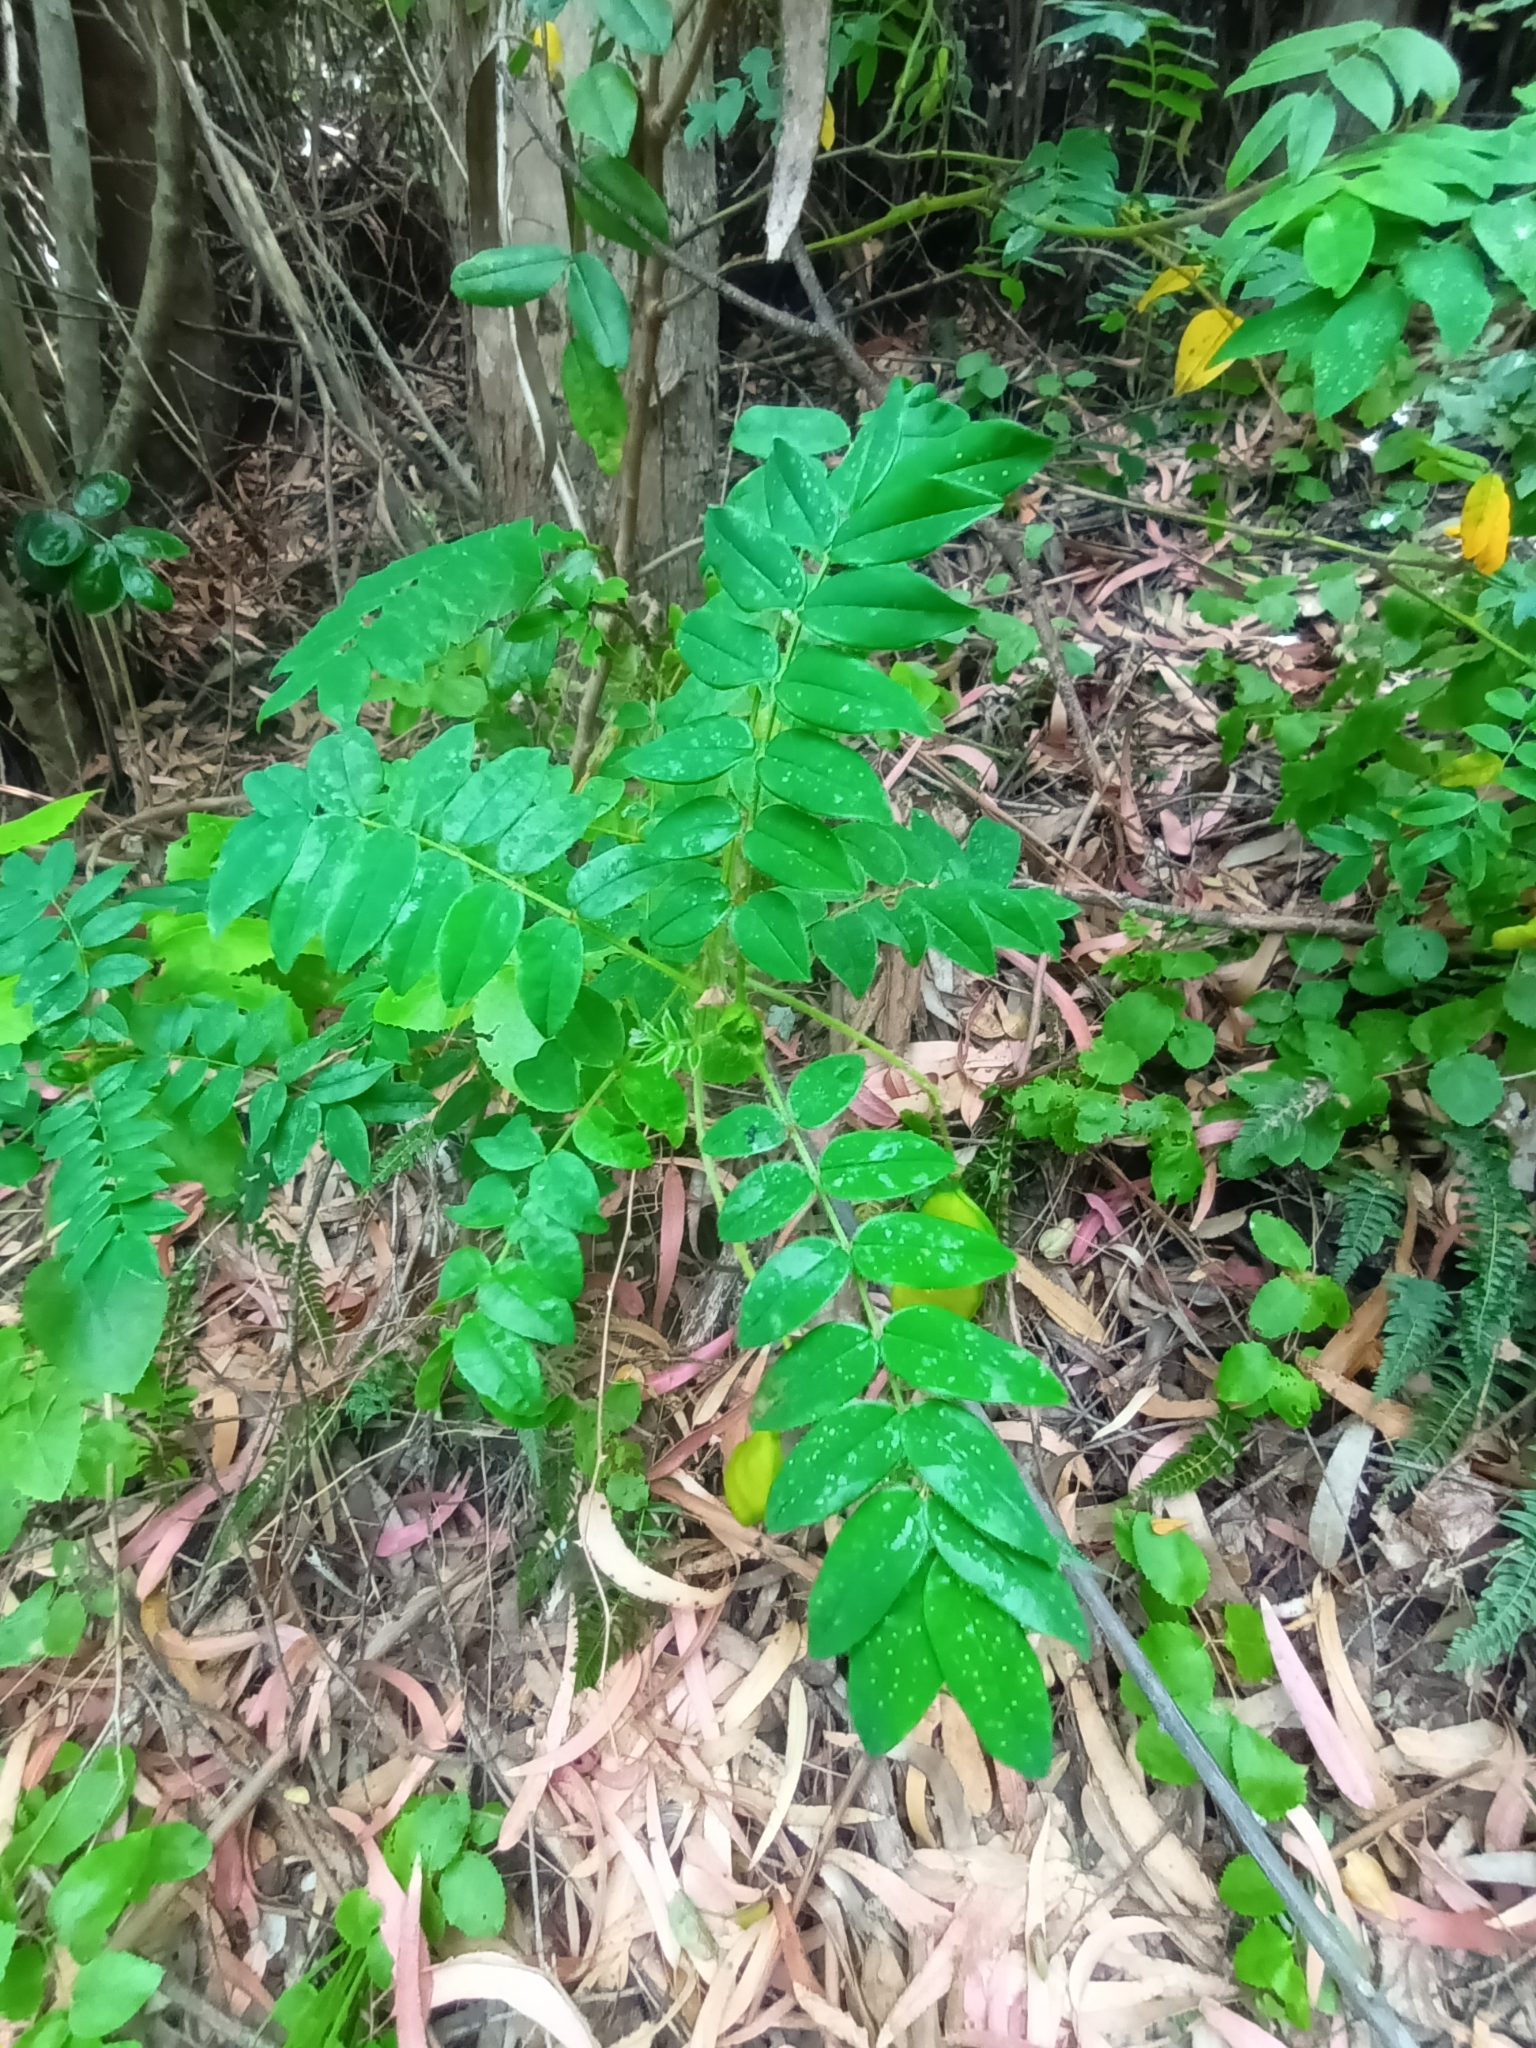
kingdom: Plantae
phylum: Tracheophyta
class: Magnoliopsida
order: Fabales
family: Fabaceae
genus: Senna
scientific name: Senna stipulacea
